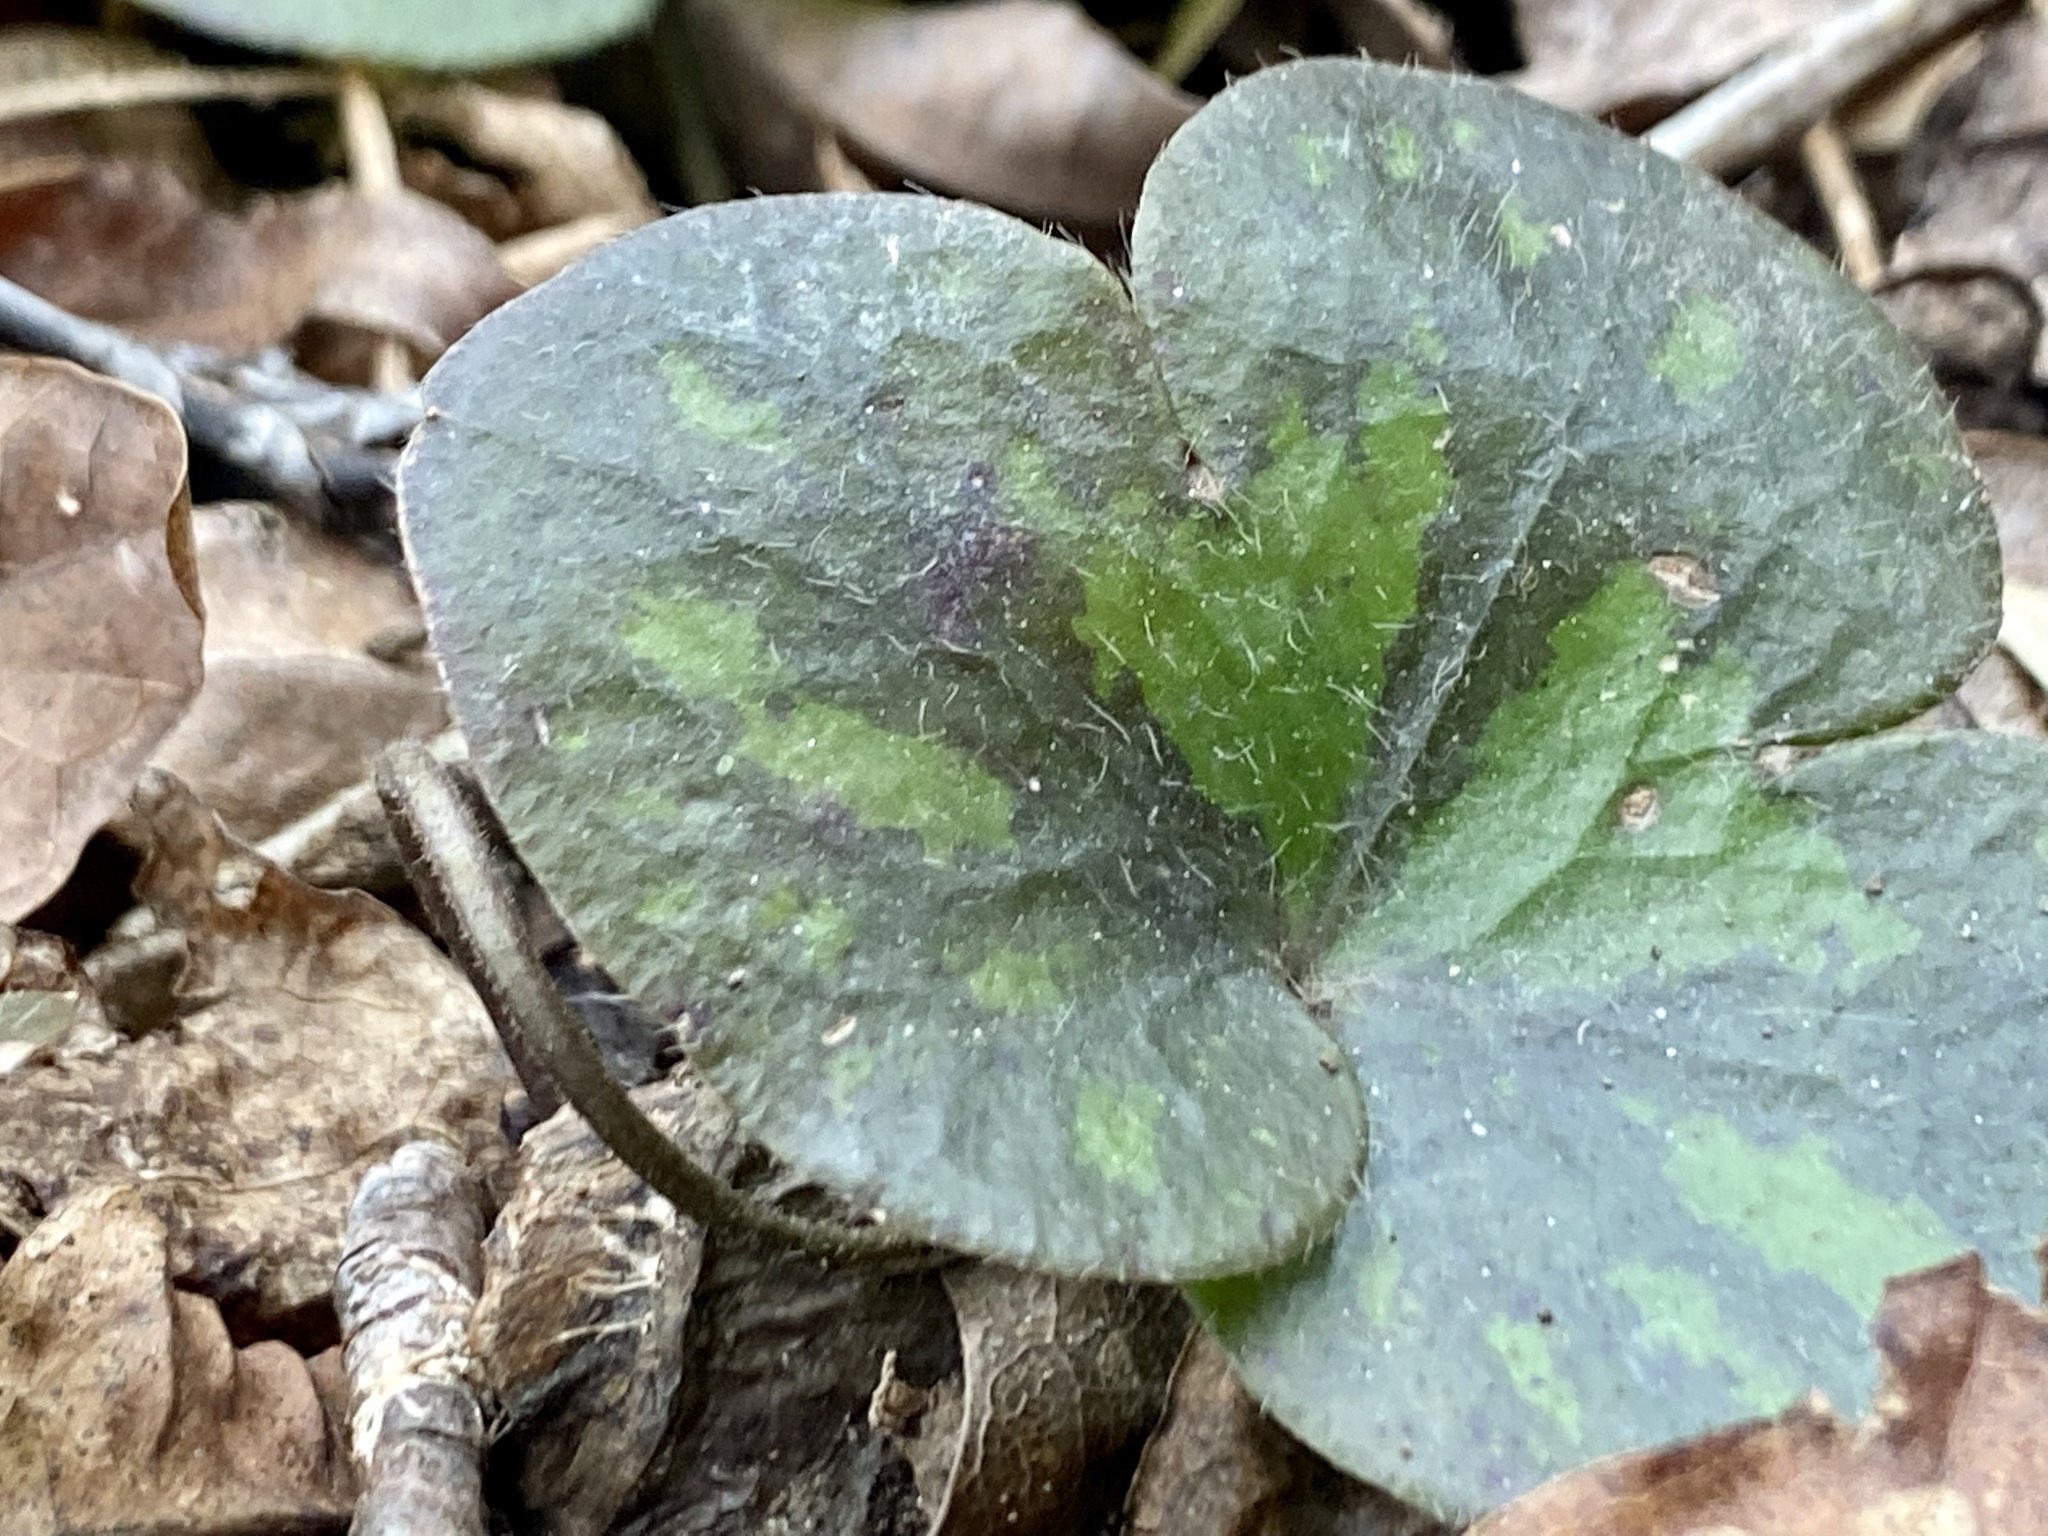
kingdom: Plantae
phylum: Tracheophyta
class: Magnoliopsida
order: Ranunculales
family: Ranunculaceae
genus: Hepatica
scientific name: Hepatica americana
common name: American hepatica
